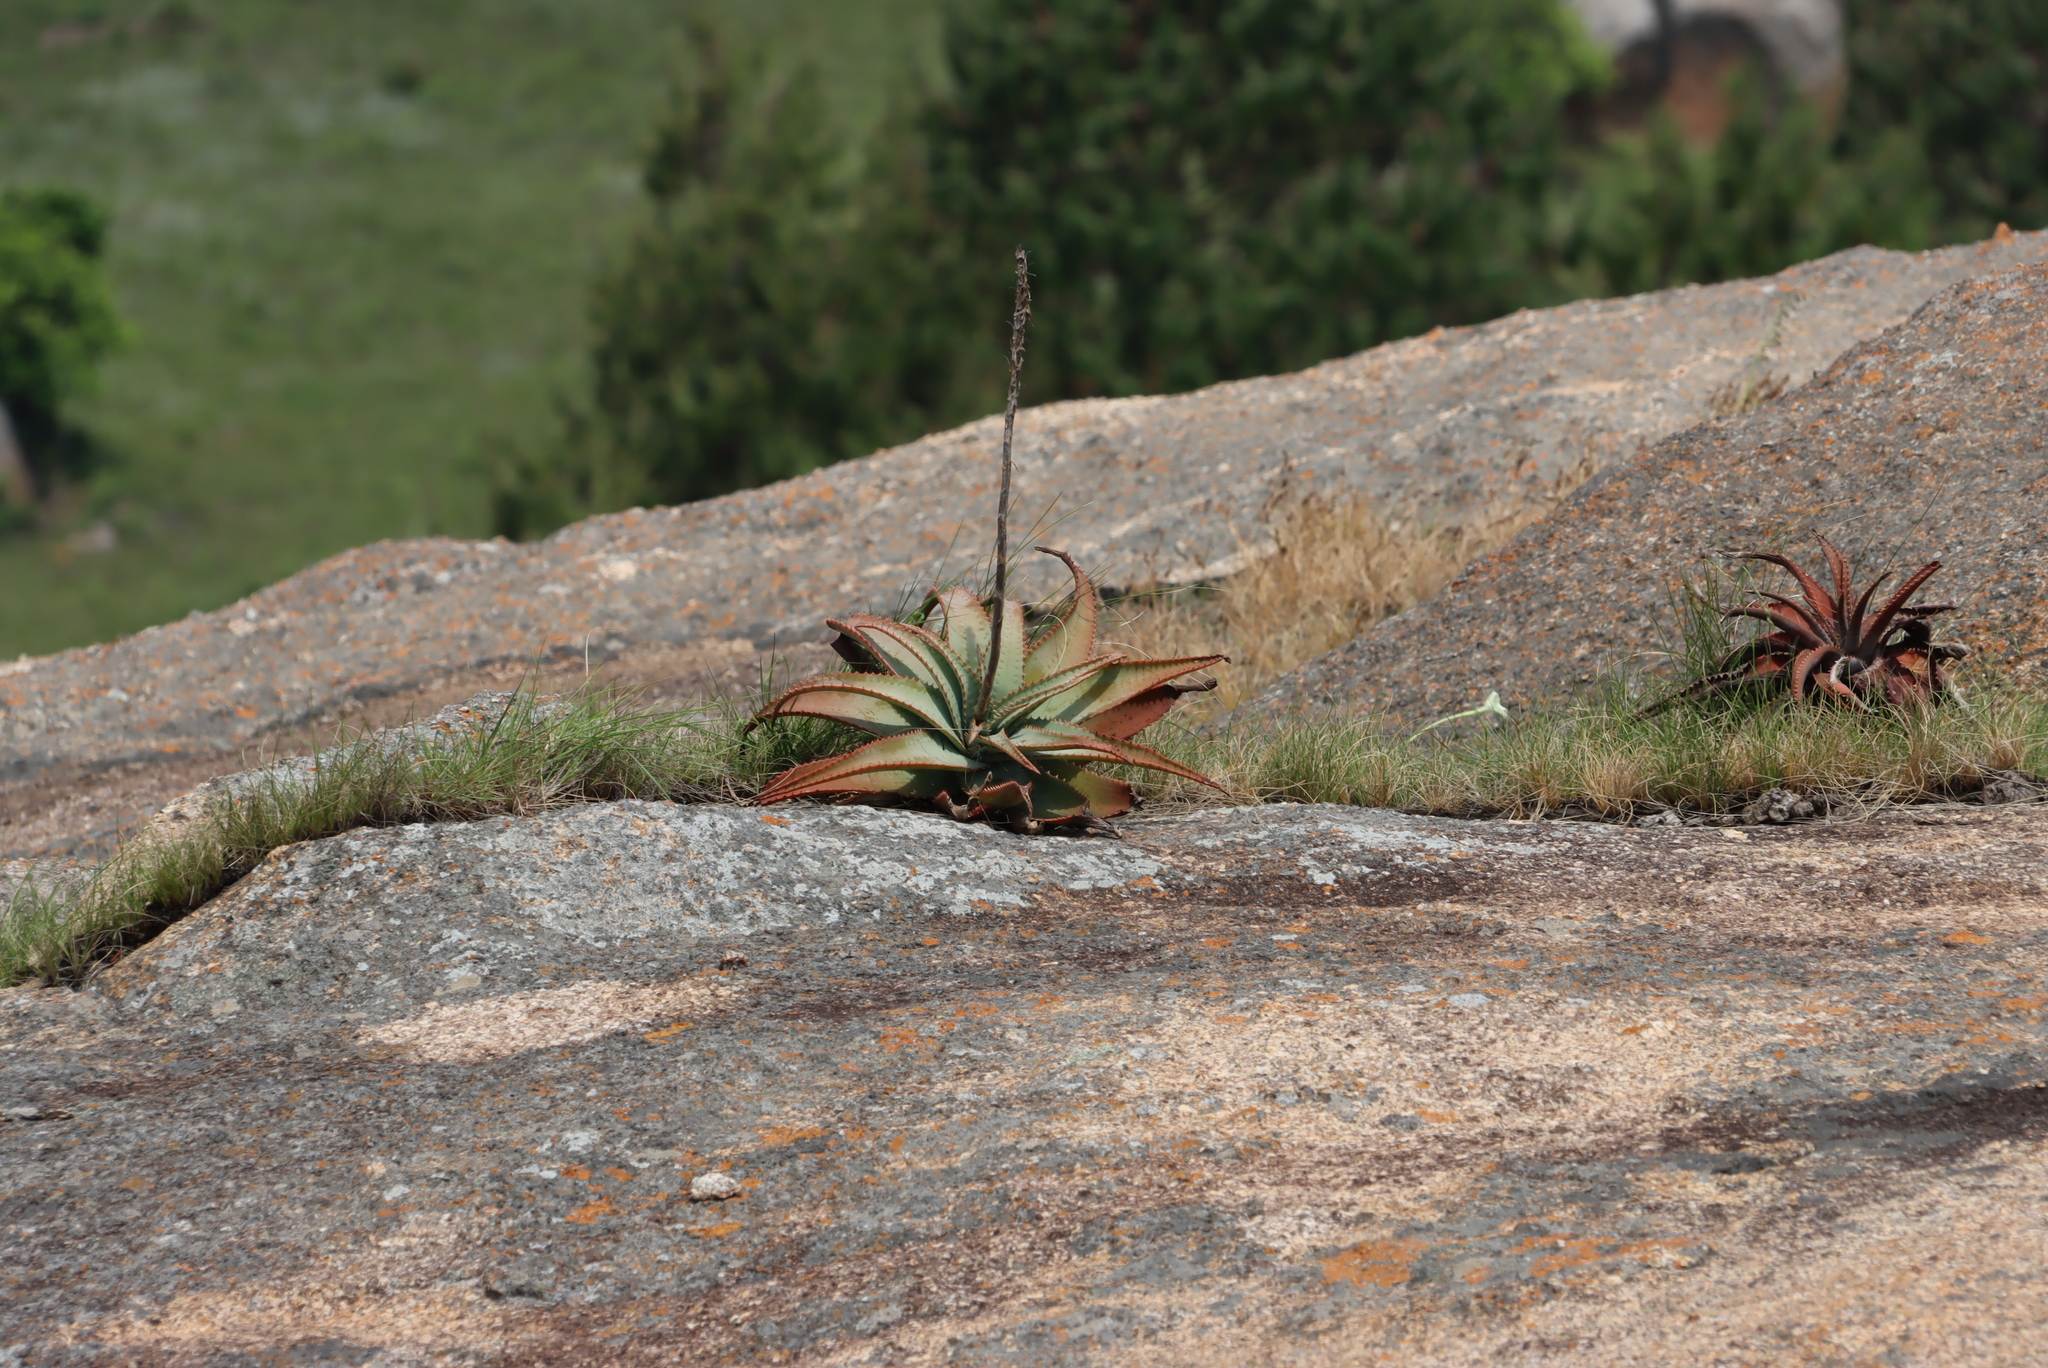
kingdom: Plantae
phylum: Tracheophyta
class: Liliopsida
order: Asparagales
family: Asphodelaceae
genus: Aloe
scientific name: Aloe suprafoliata
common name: Book aloe
